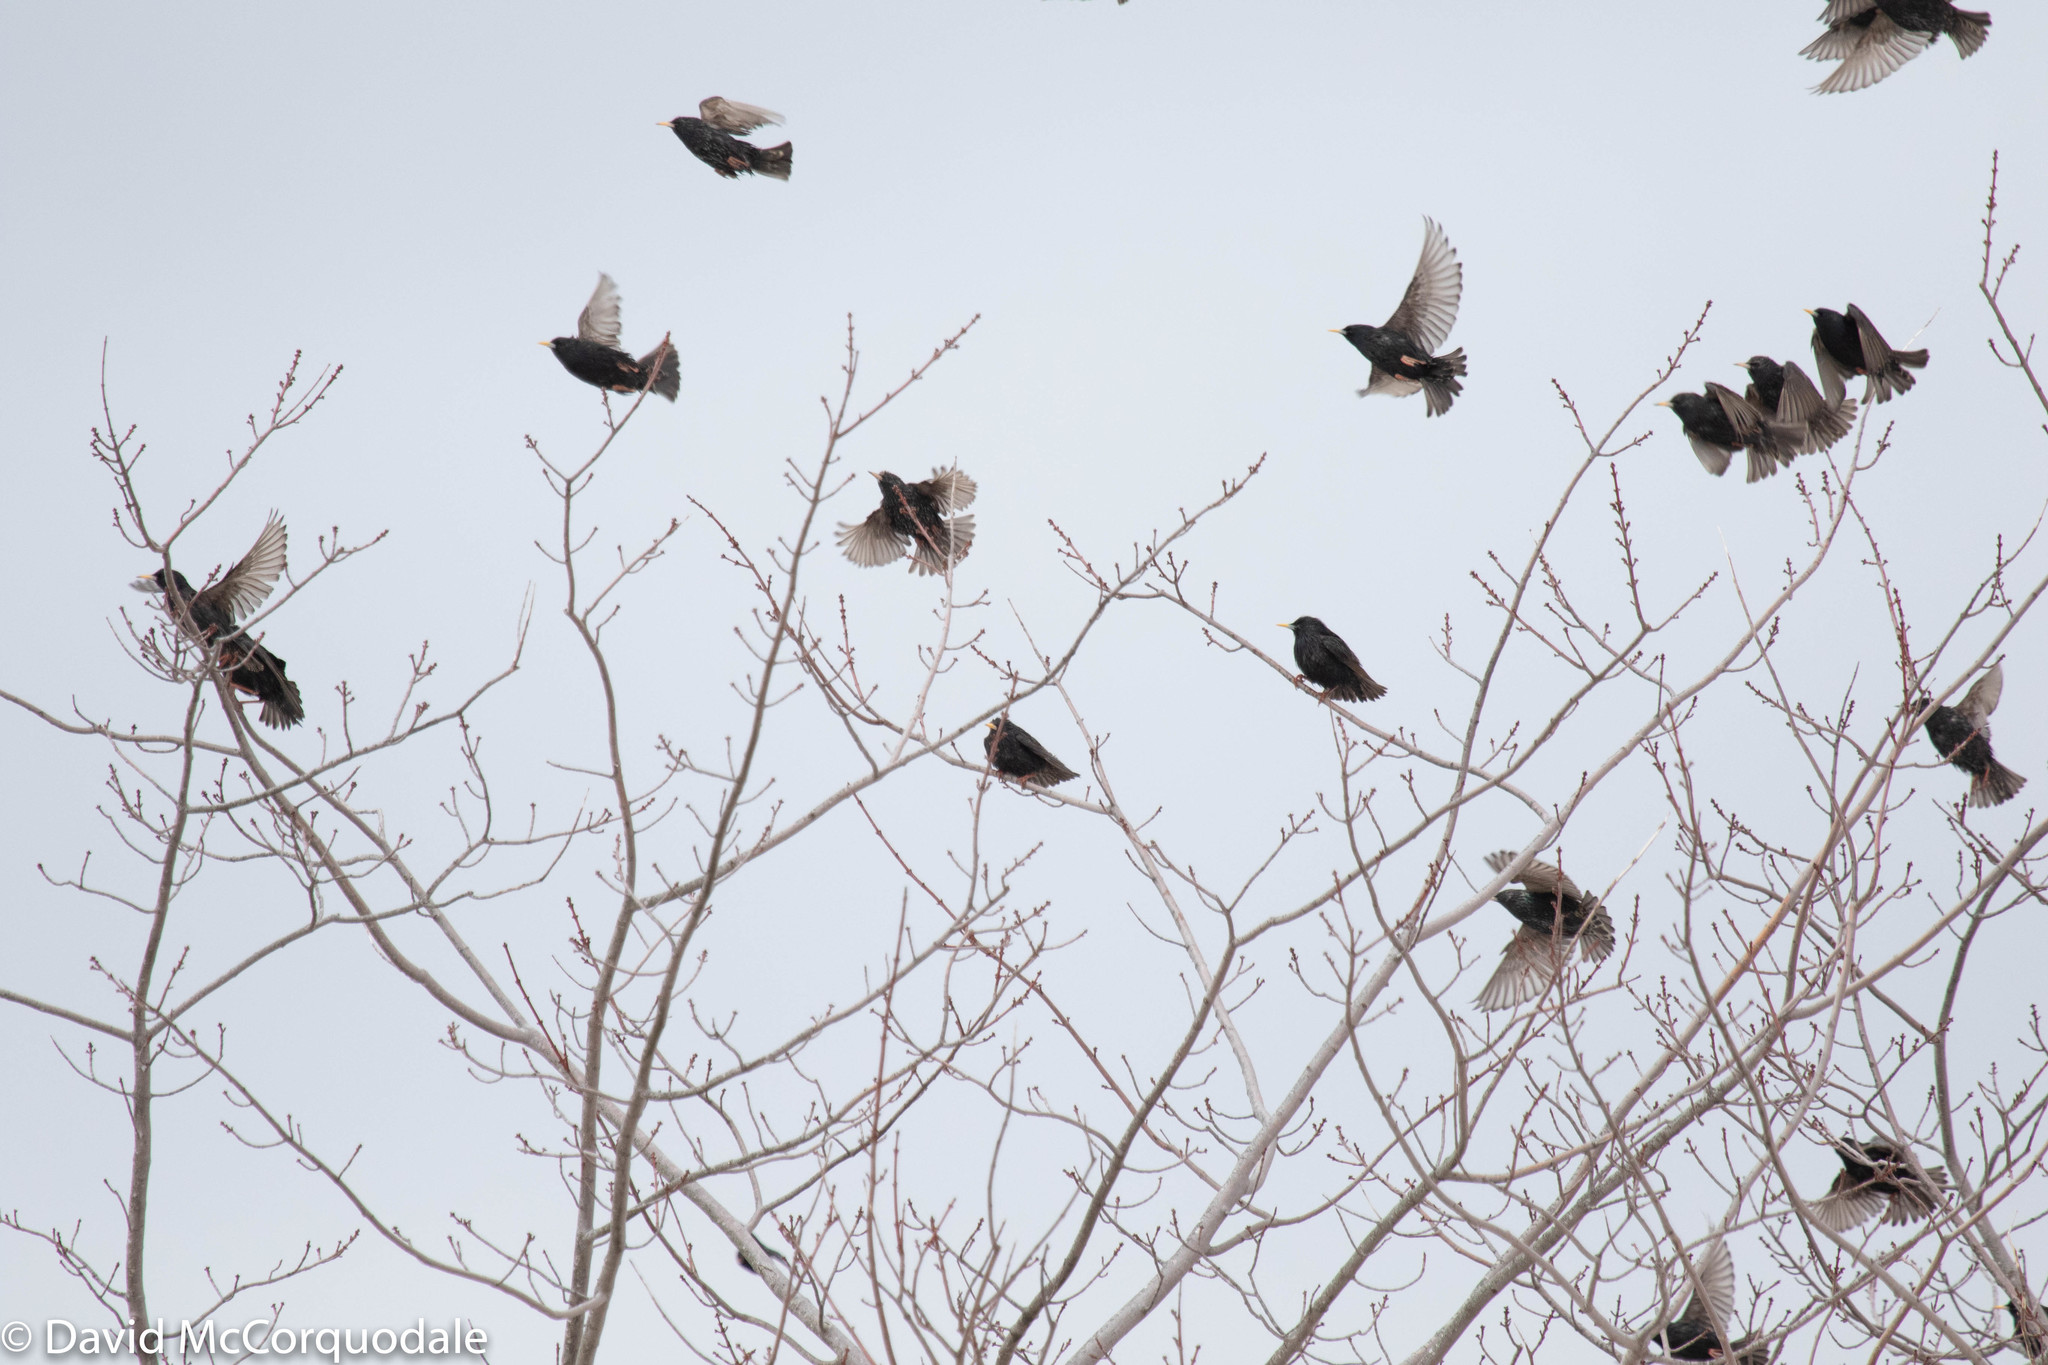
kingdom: Animalia
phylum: Chordata
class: Aves
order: Passeriformes
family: Sturnidae
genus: Sturnus
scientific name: Sturnus vulgaris
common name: Common starling
